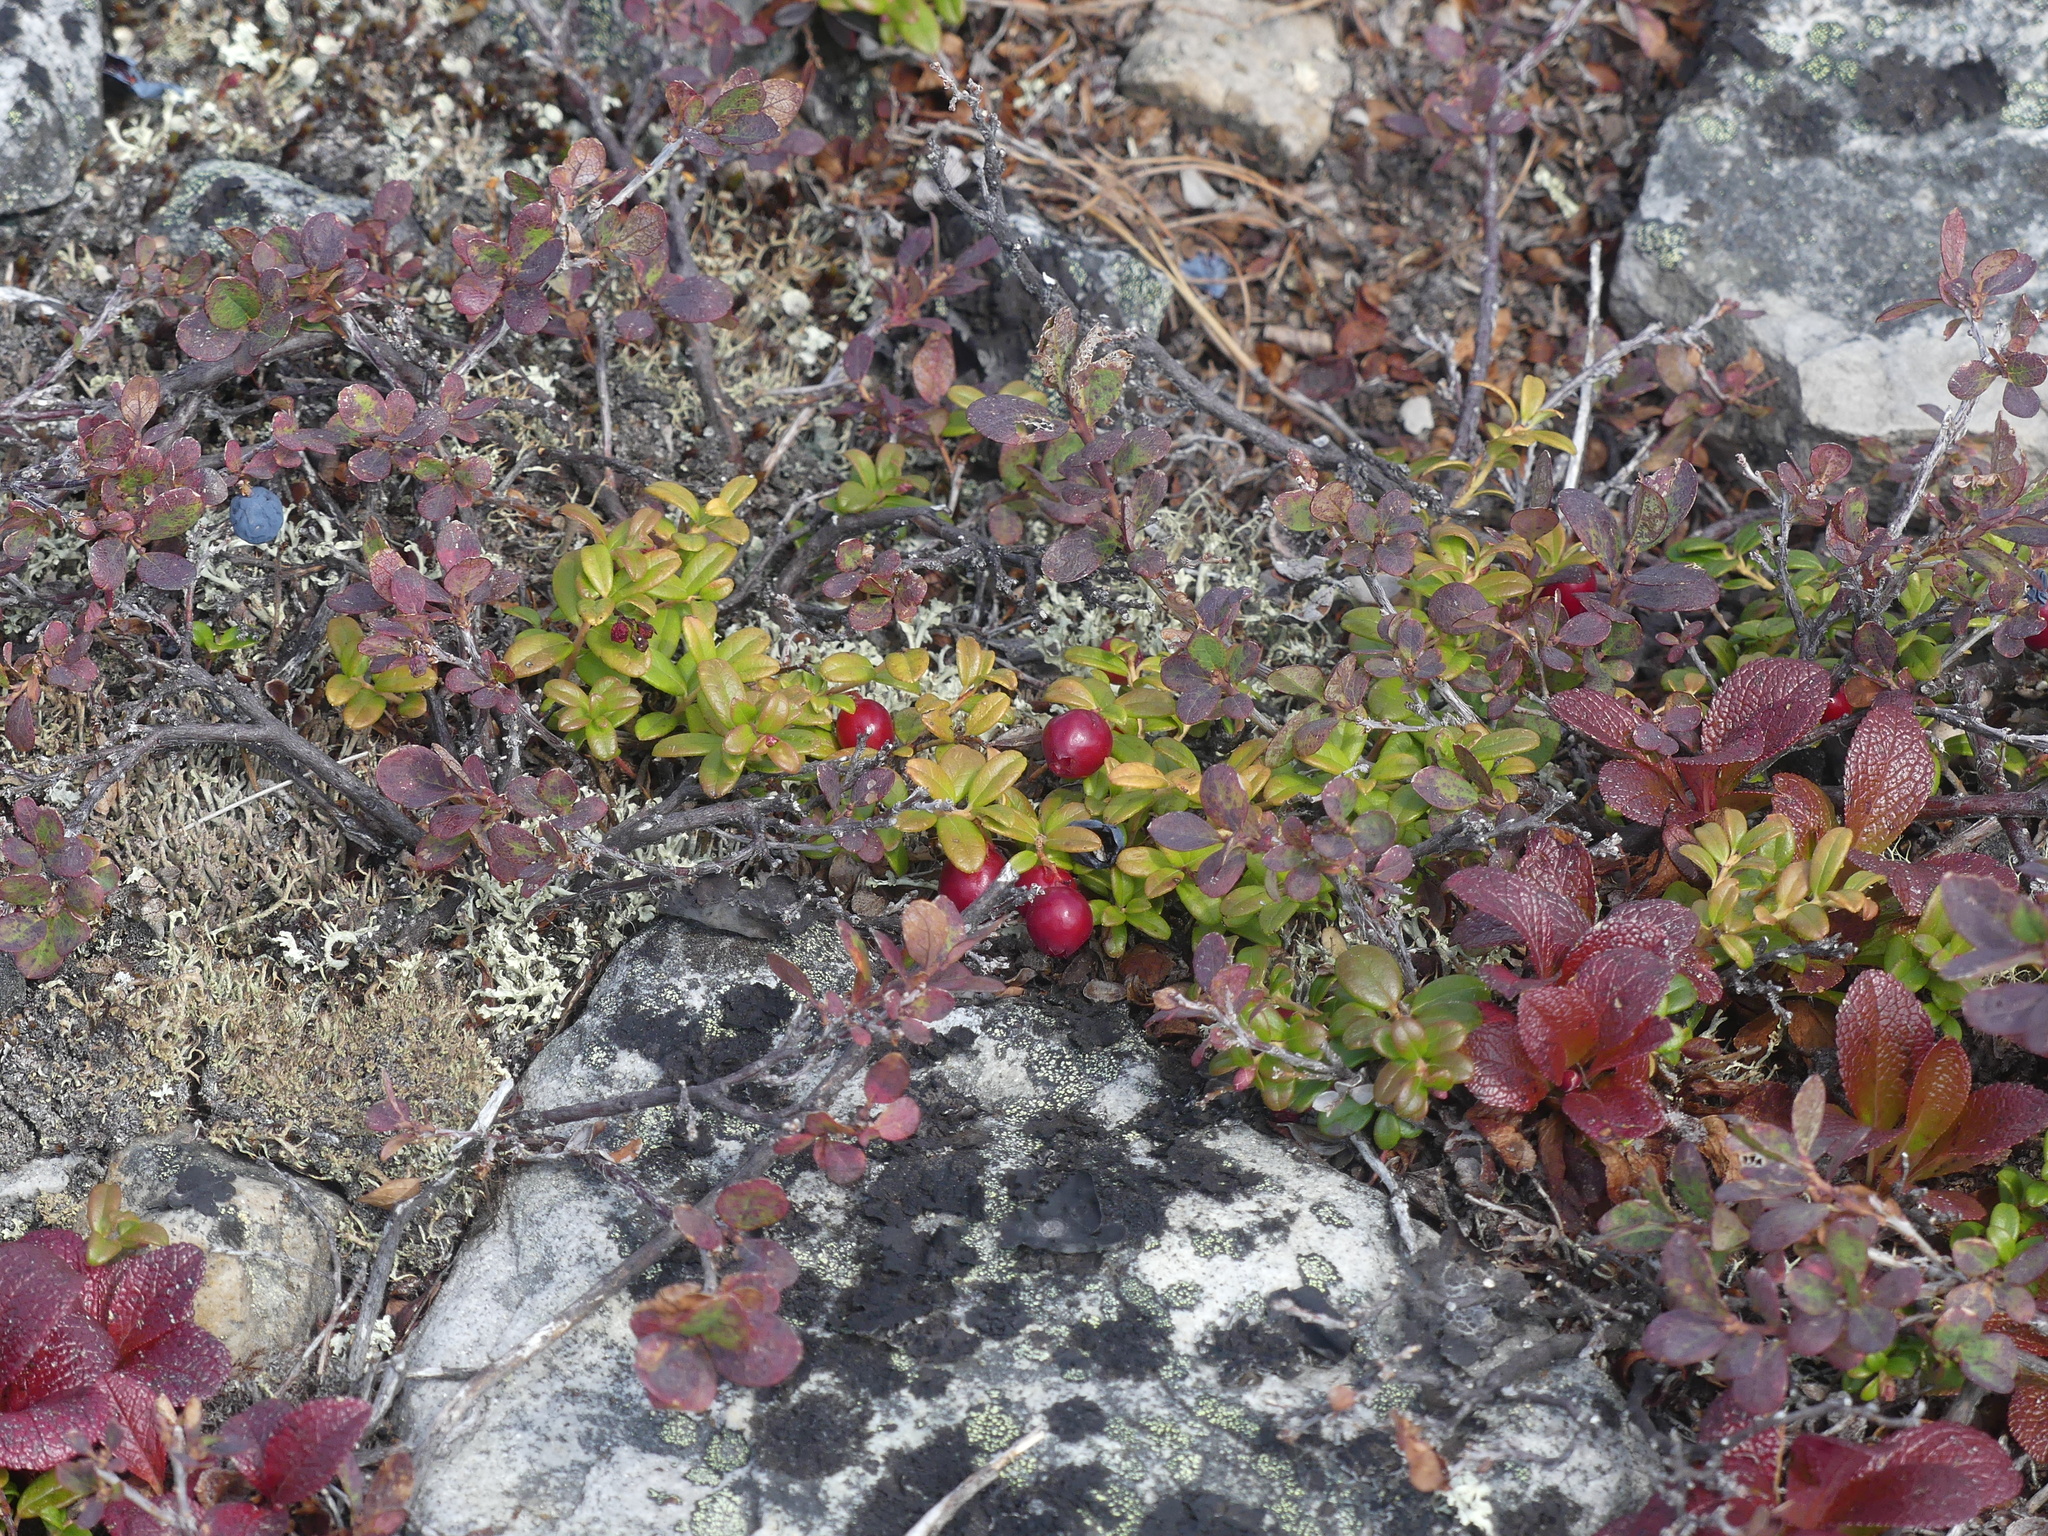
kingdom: Plantae
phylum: Tracheophyta
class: Magnoliopsida
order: Ericales
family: Ericaceae
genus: Vaccinium
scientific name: Vaccinium vitis-idaea
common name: Cowberry
